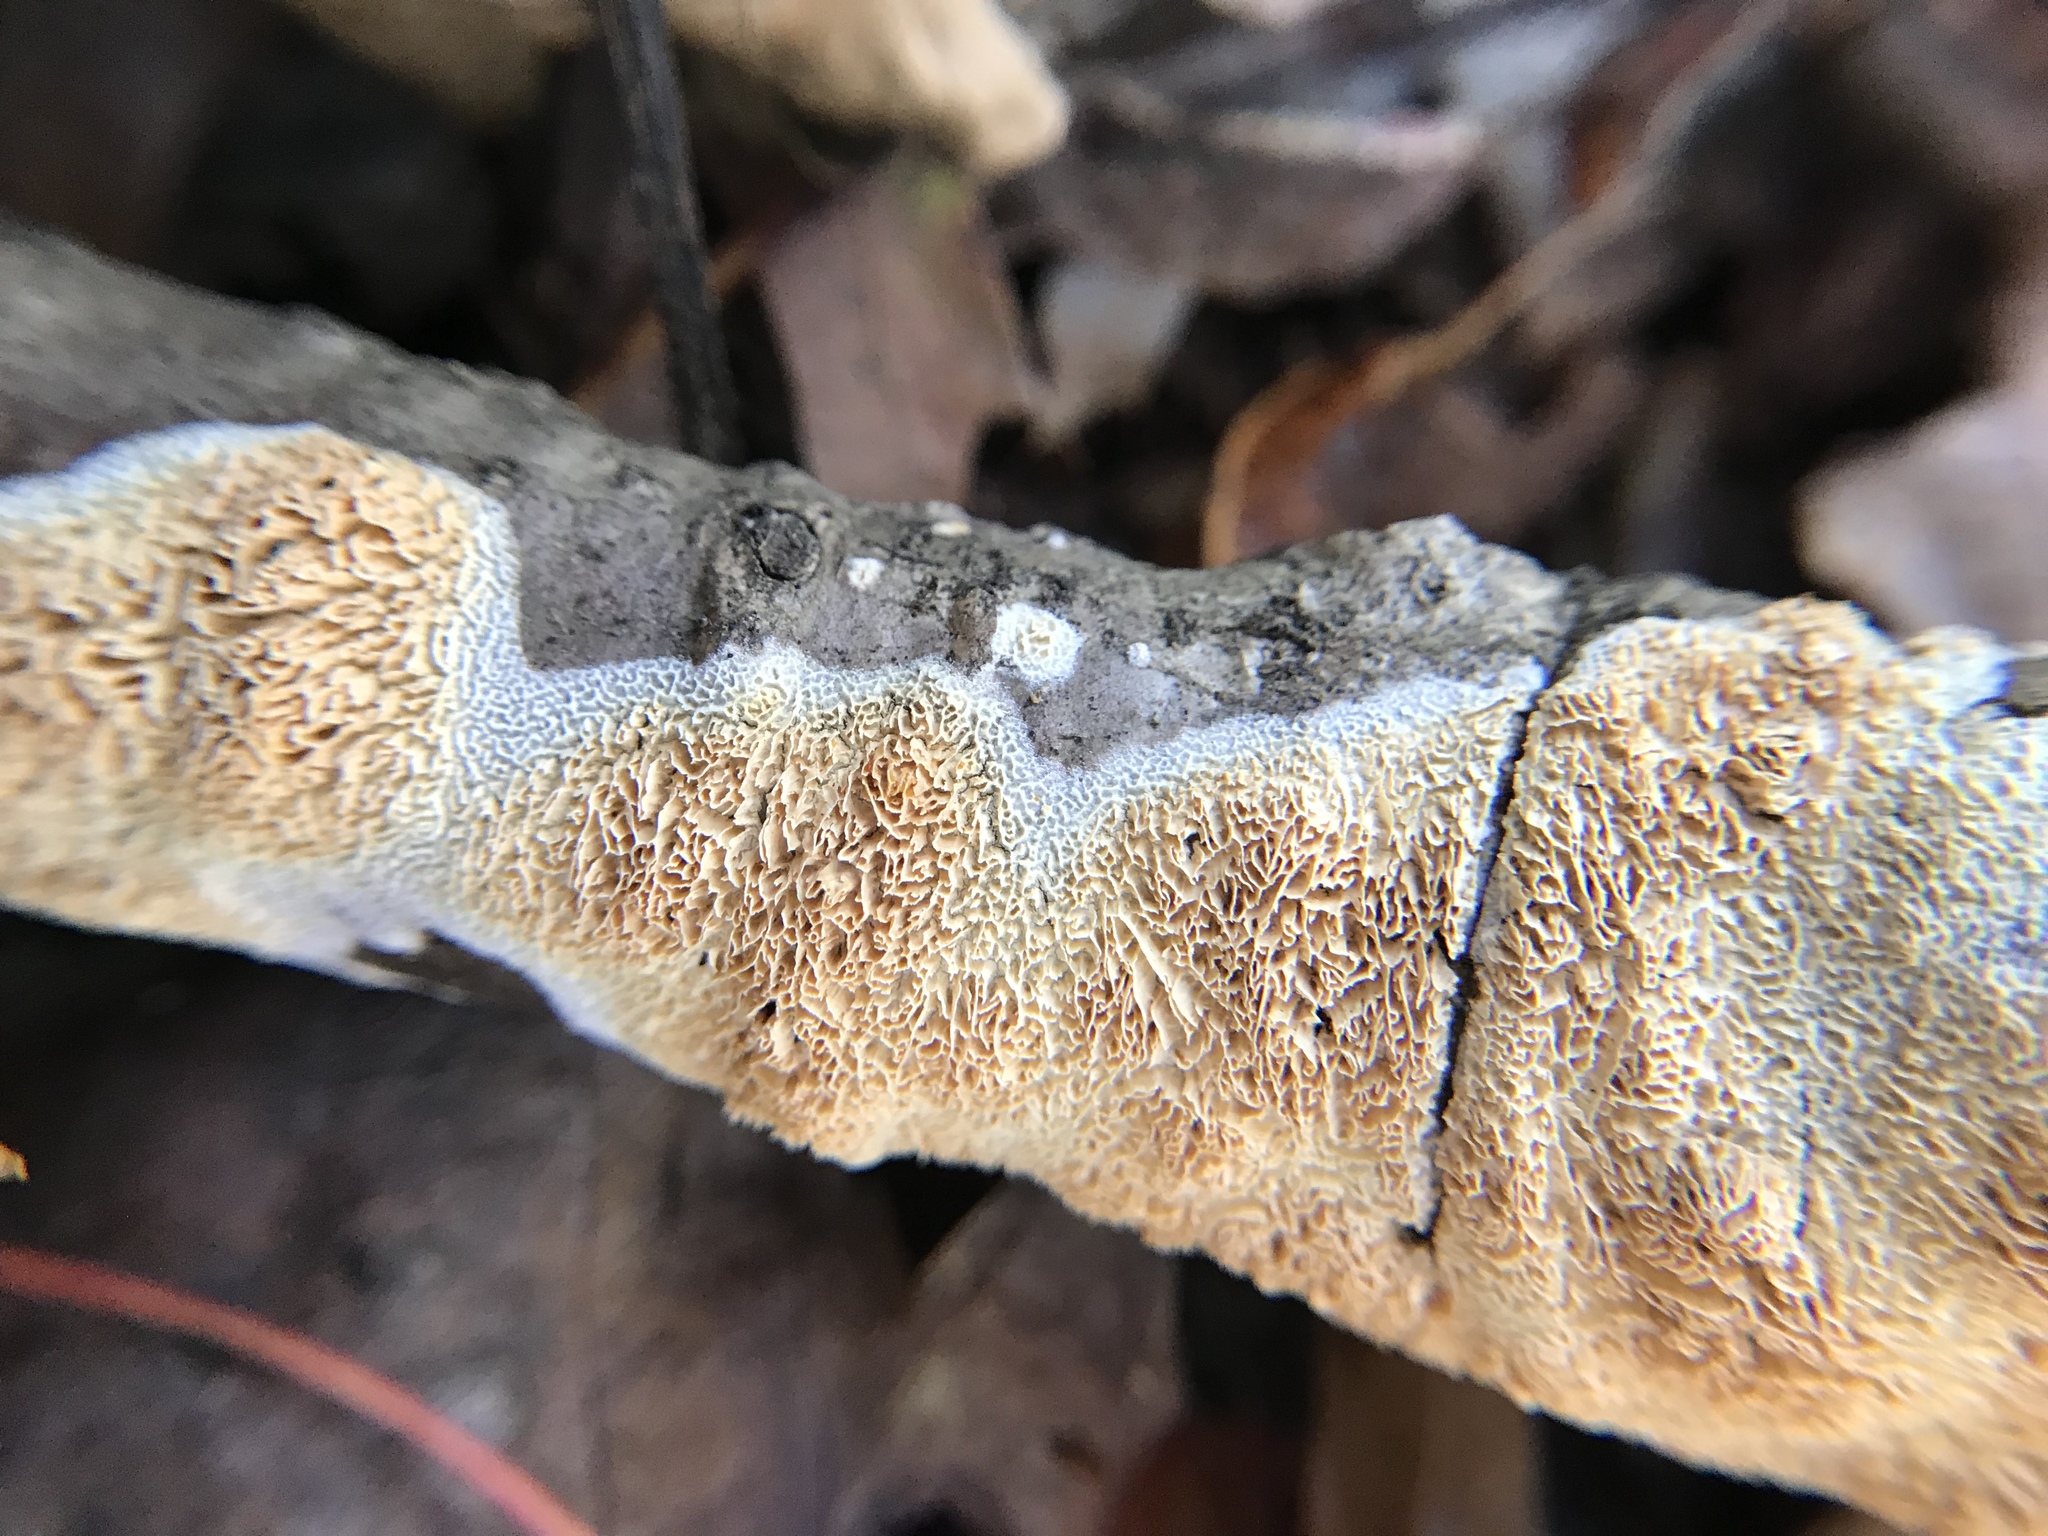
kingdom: Fungi
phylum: Basidiomycota
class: Agaricomycetes
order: Polyporales
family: Irpicaceae
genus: Irpex
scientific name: Irpex lacteus
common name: Milk-white toothed polypore
